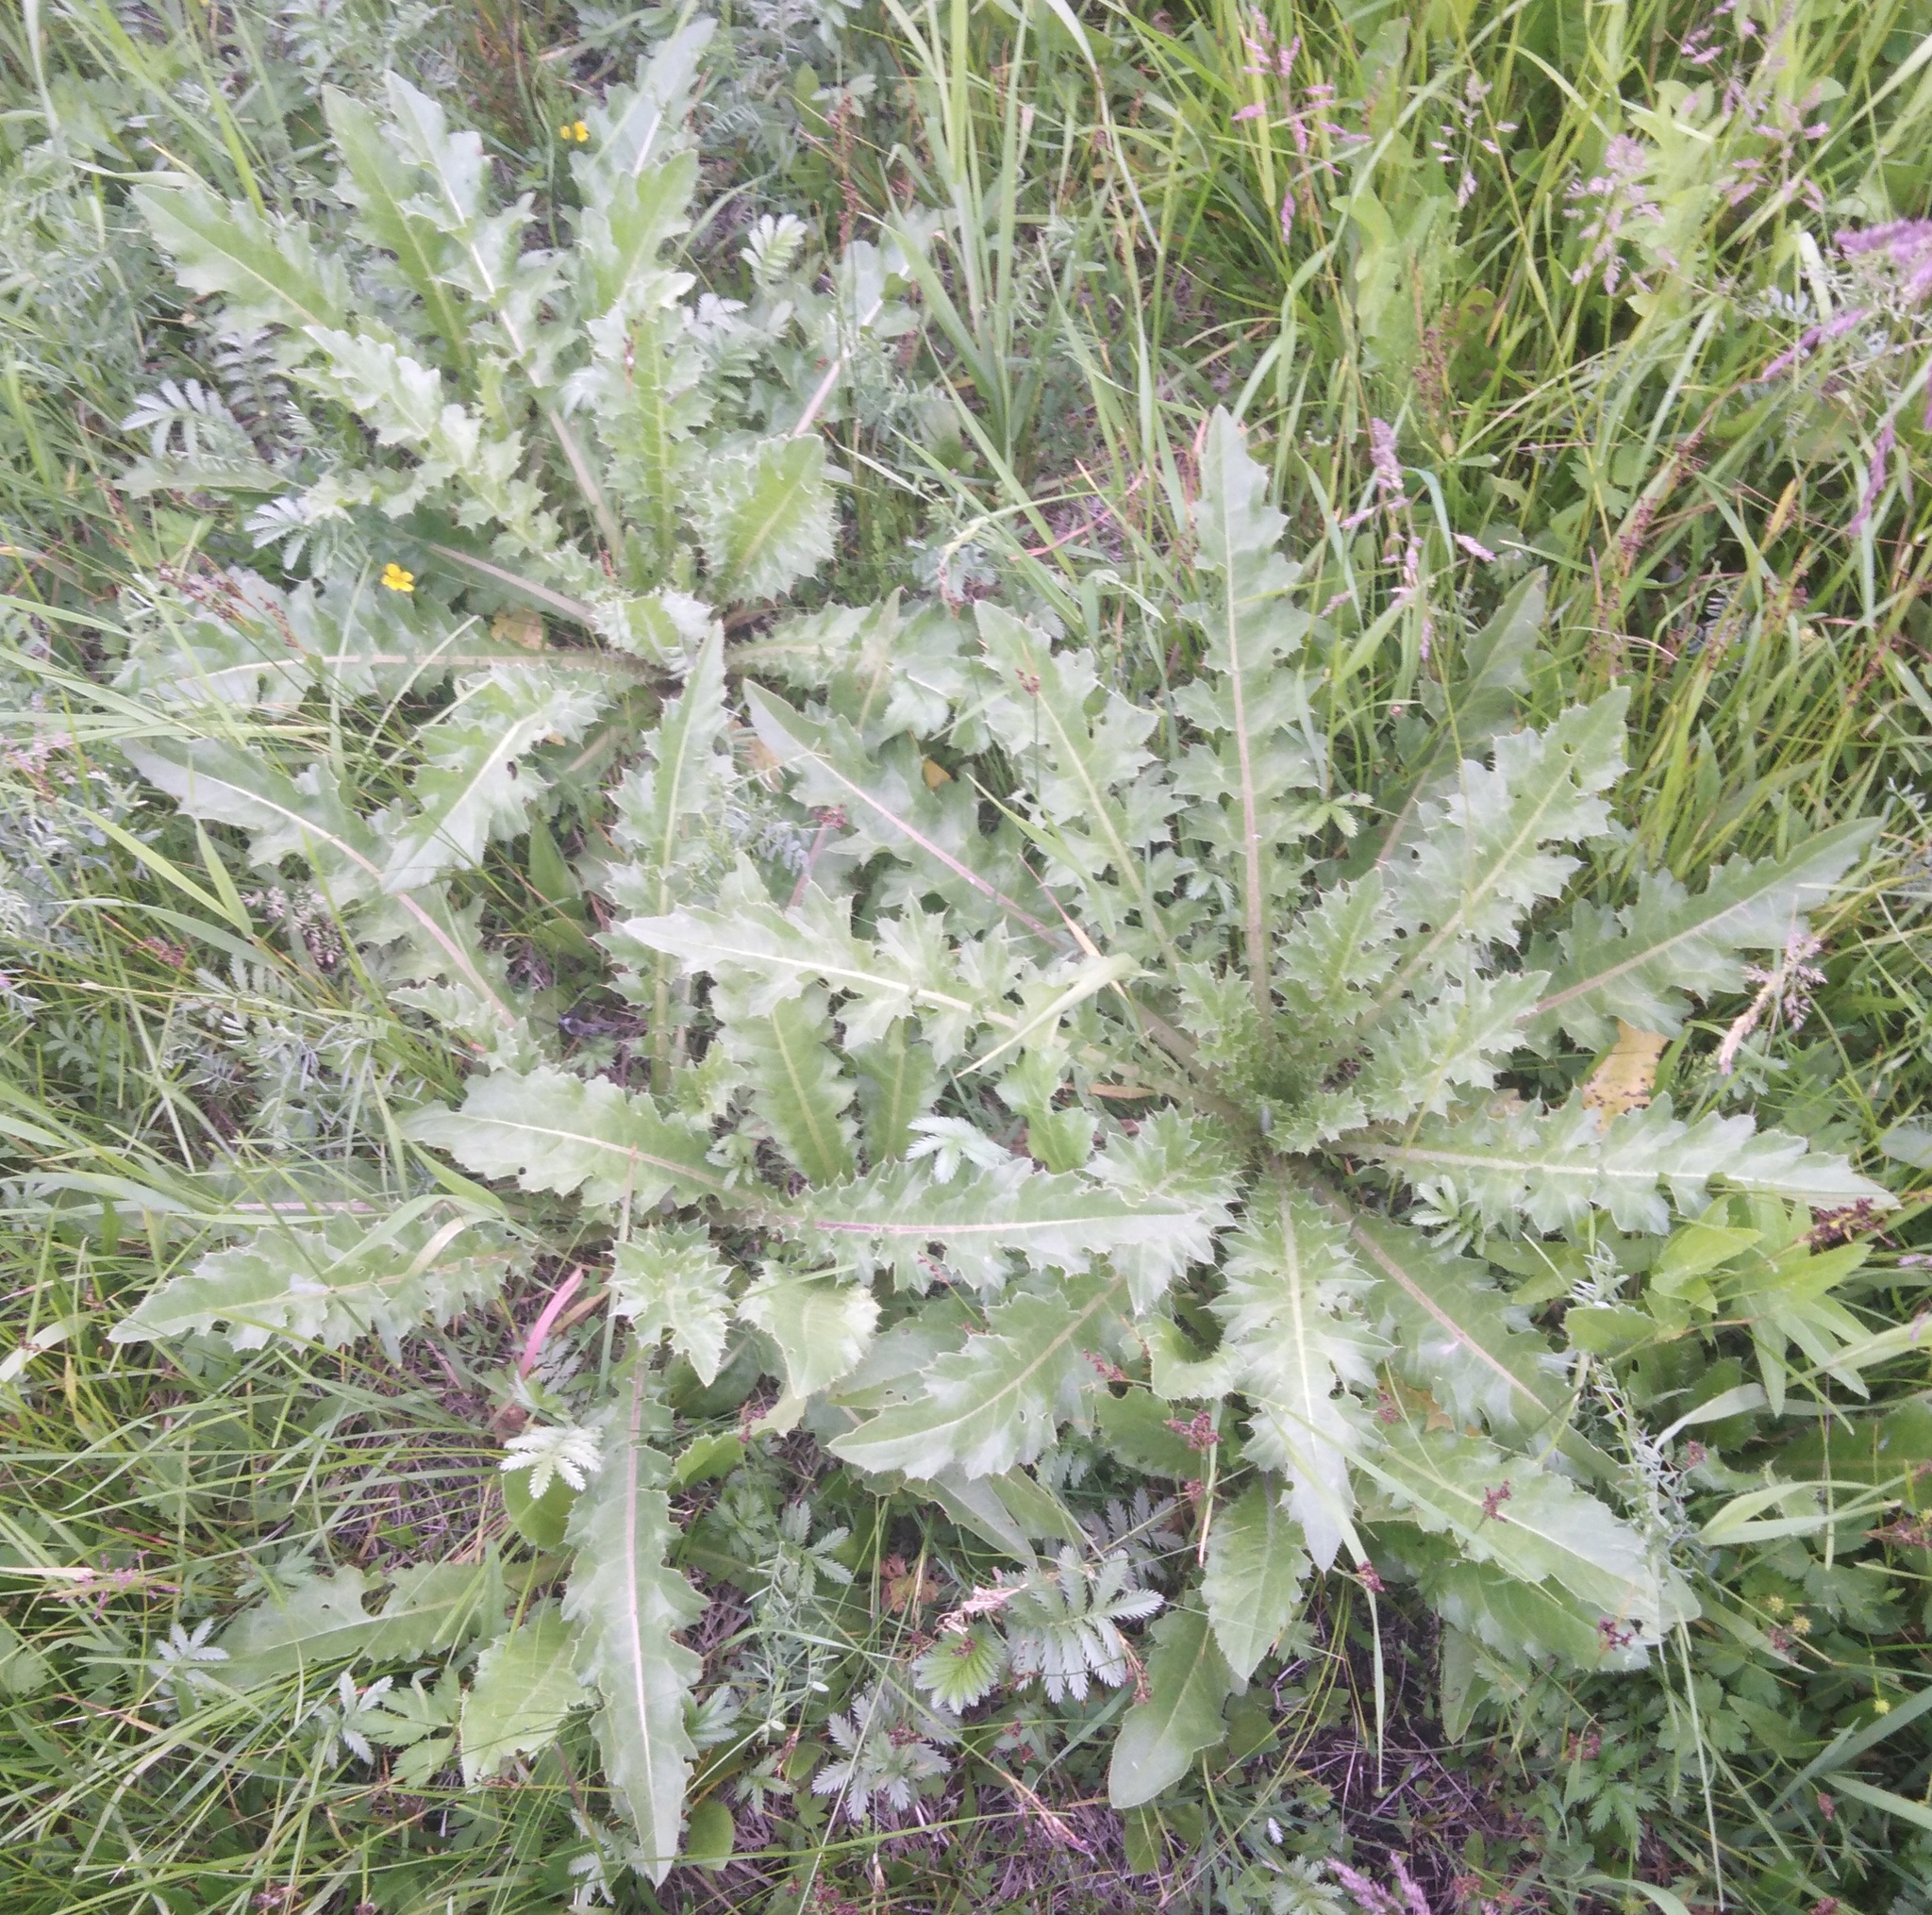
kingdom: Plantae
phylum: Tracheophyta
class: Magnoliopsida
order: Asterales
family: Asteraceae
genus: Cirsium
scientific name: Cirsium esculentum
